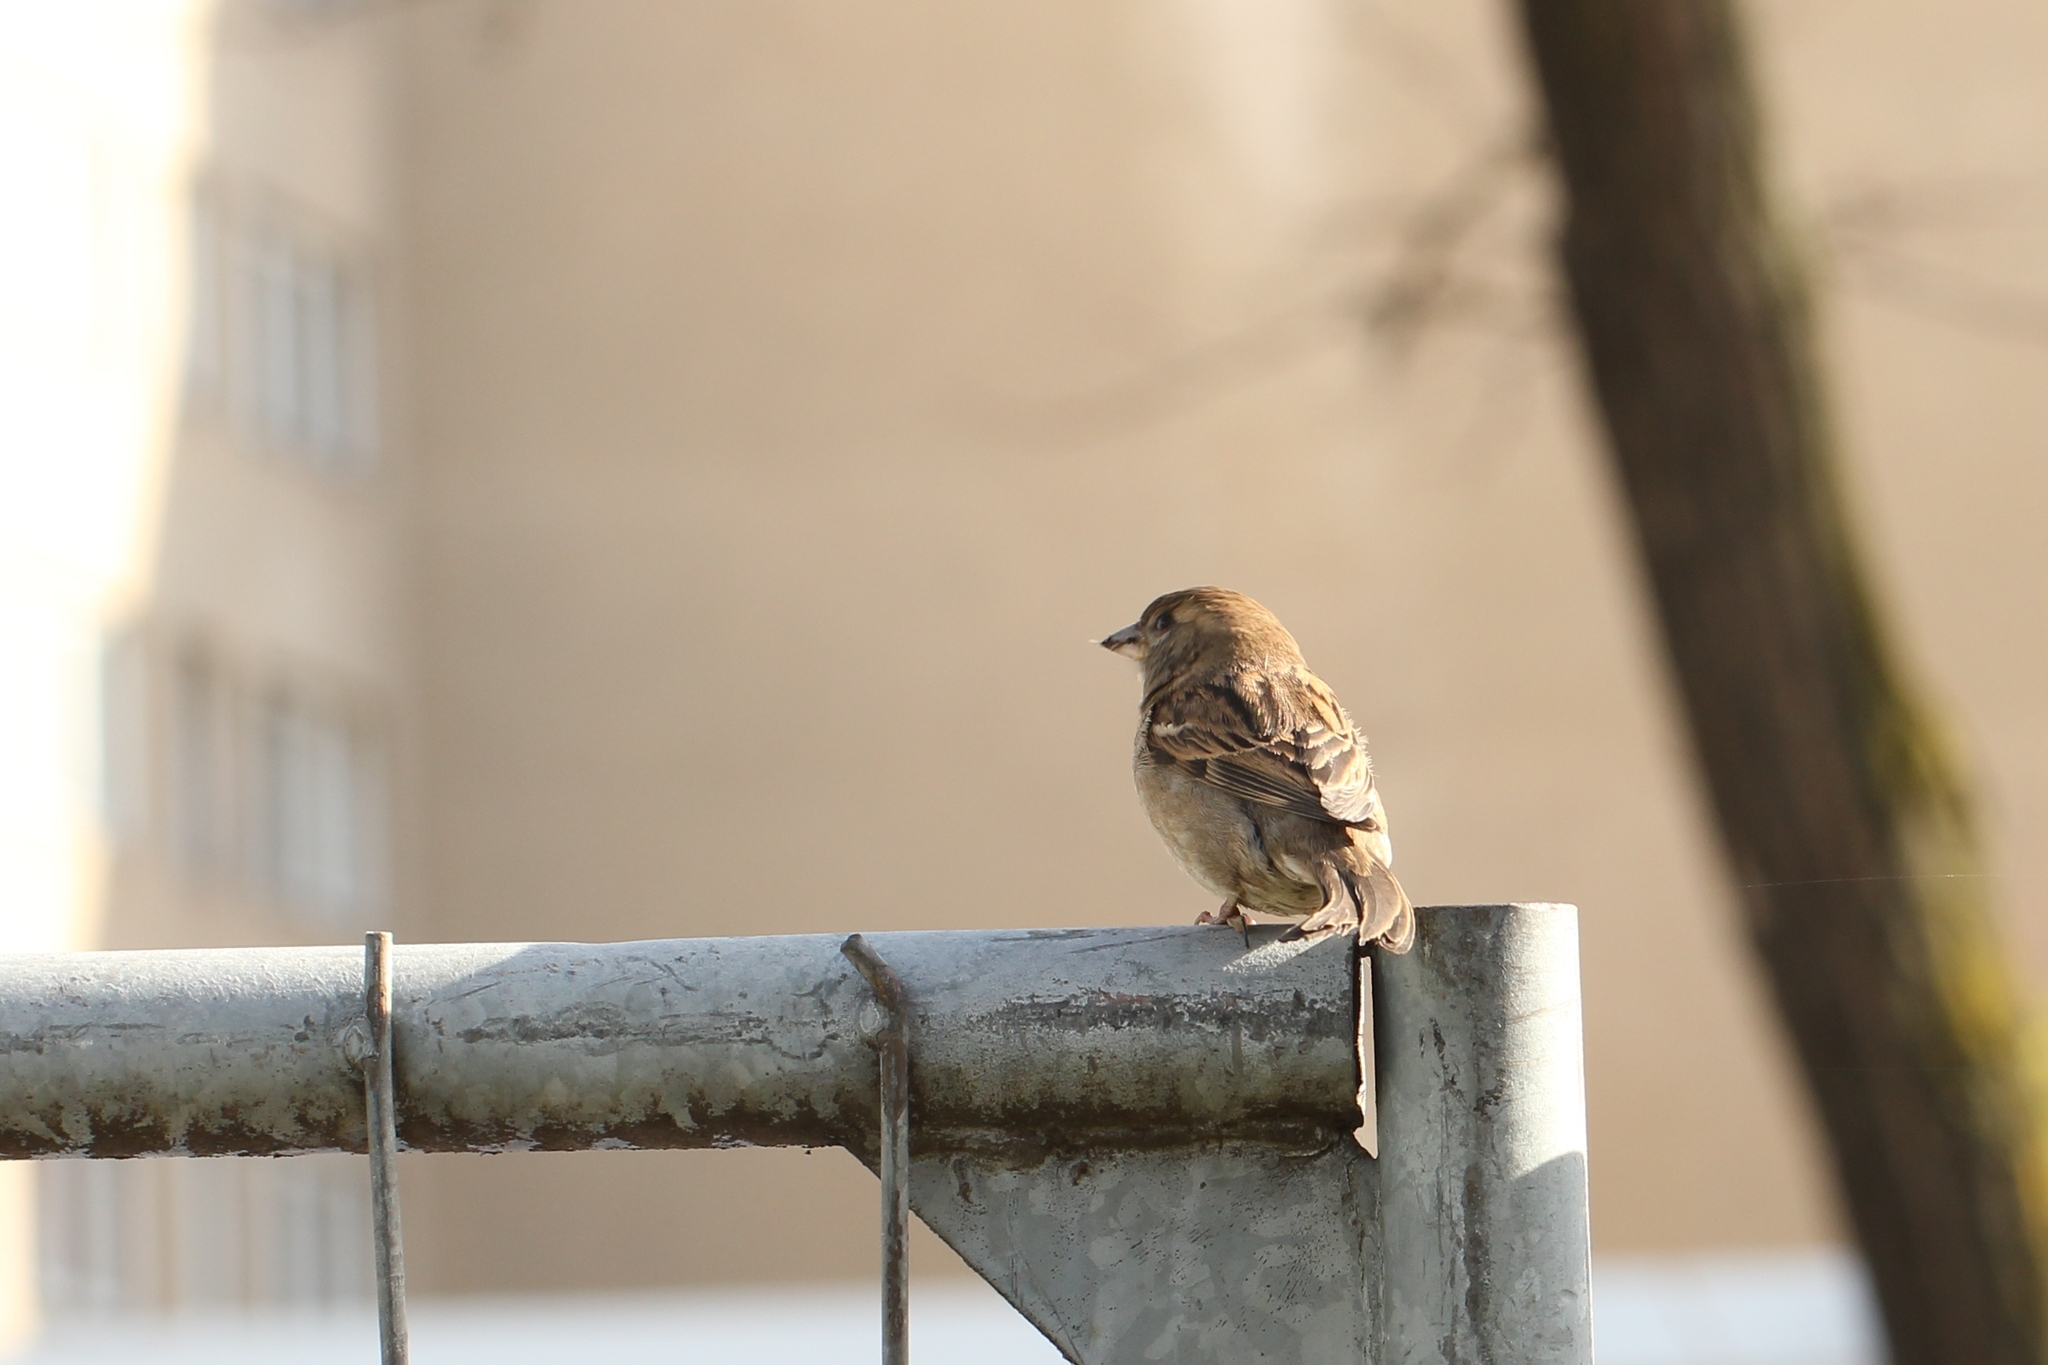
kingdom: Animalia
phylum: Chordata
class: Aves
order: Passeriformes
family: Passeridae
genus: Passer
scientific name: Passer domesticus
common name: House sparrow
